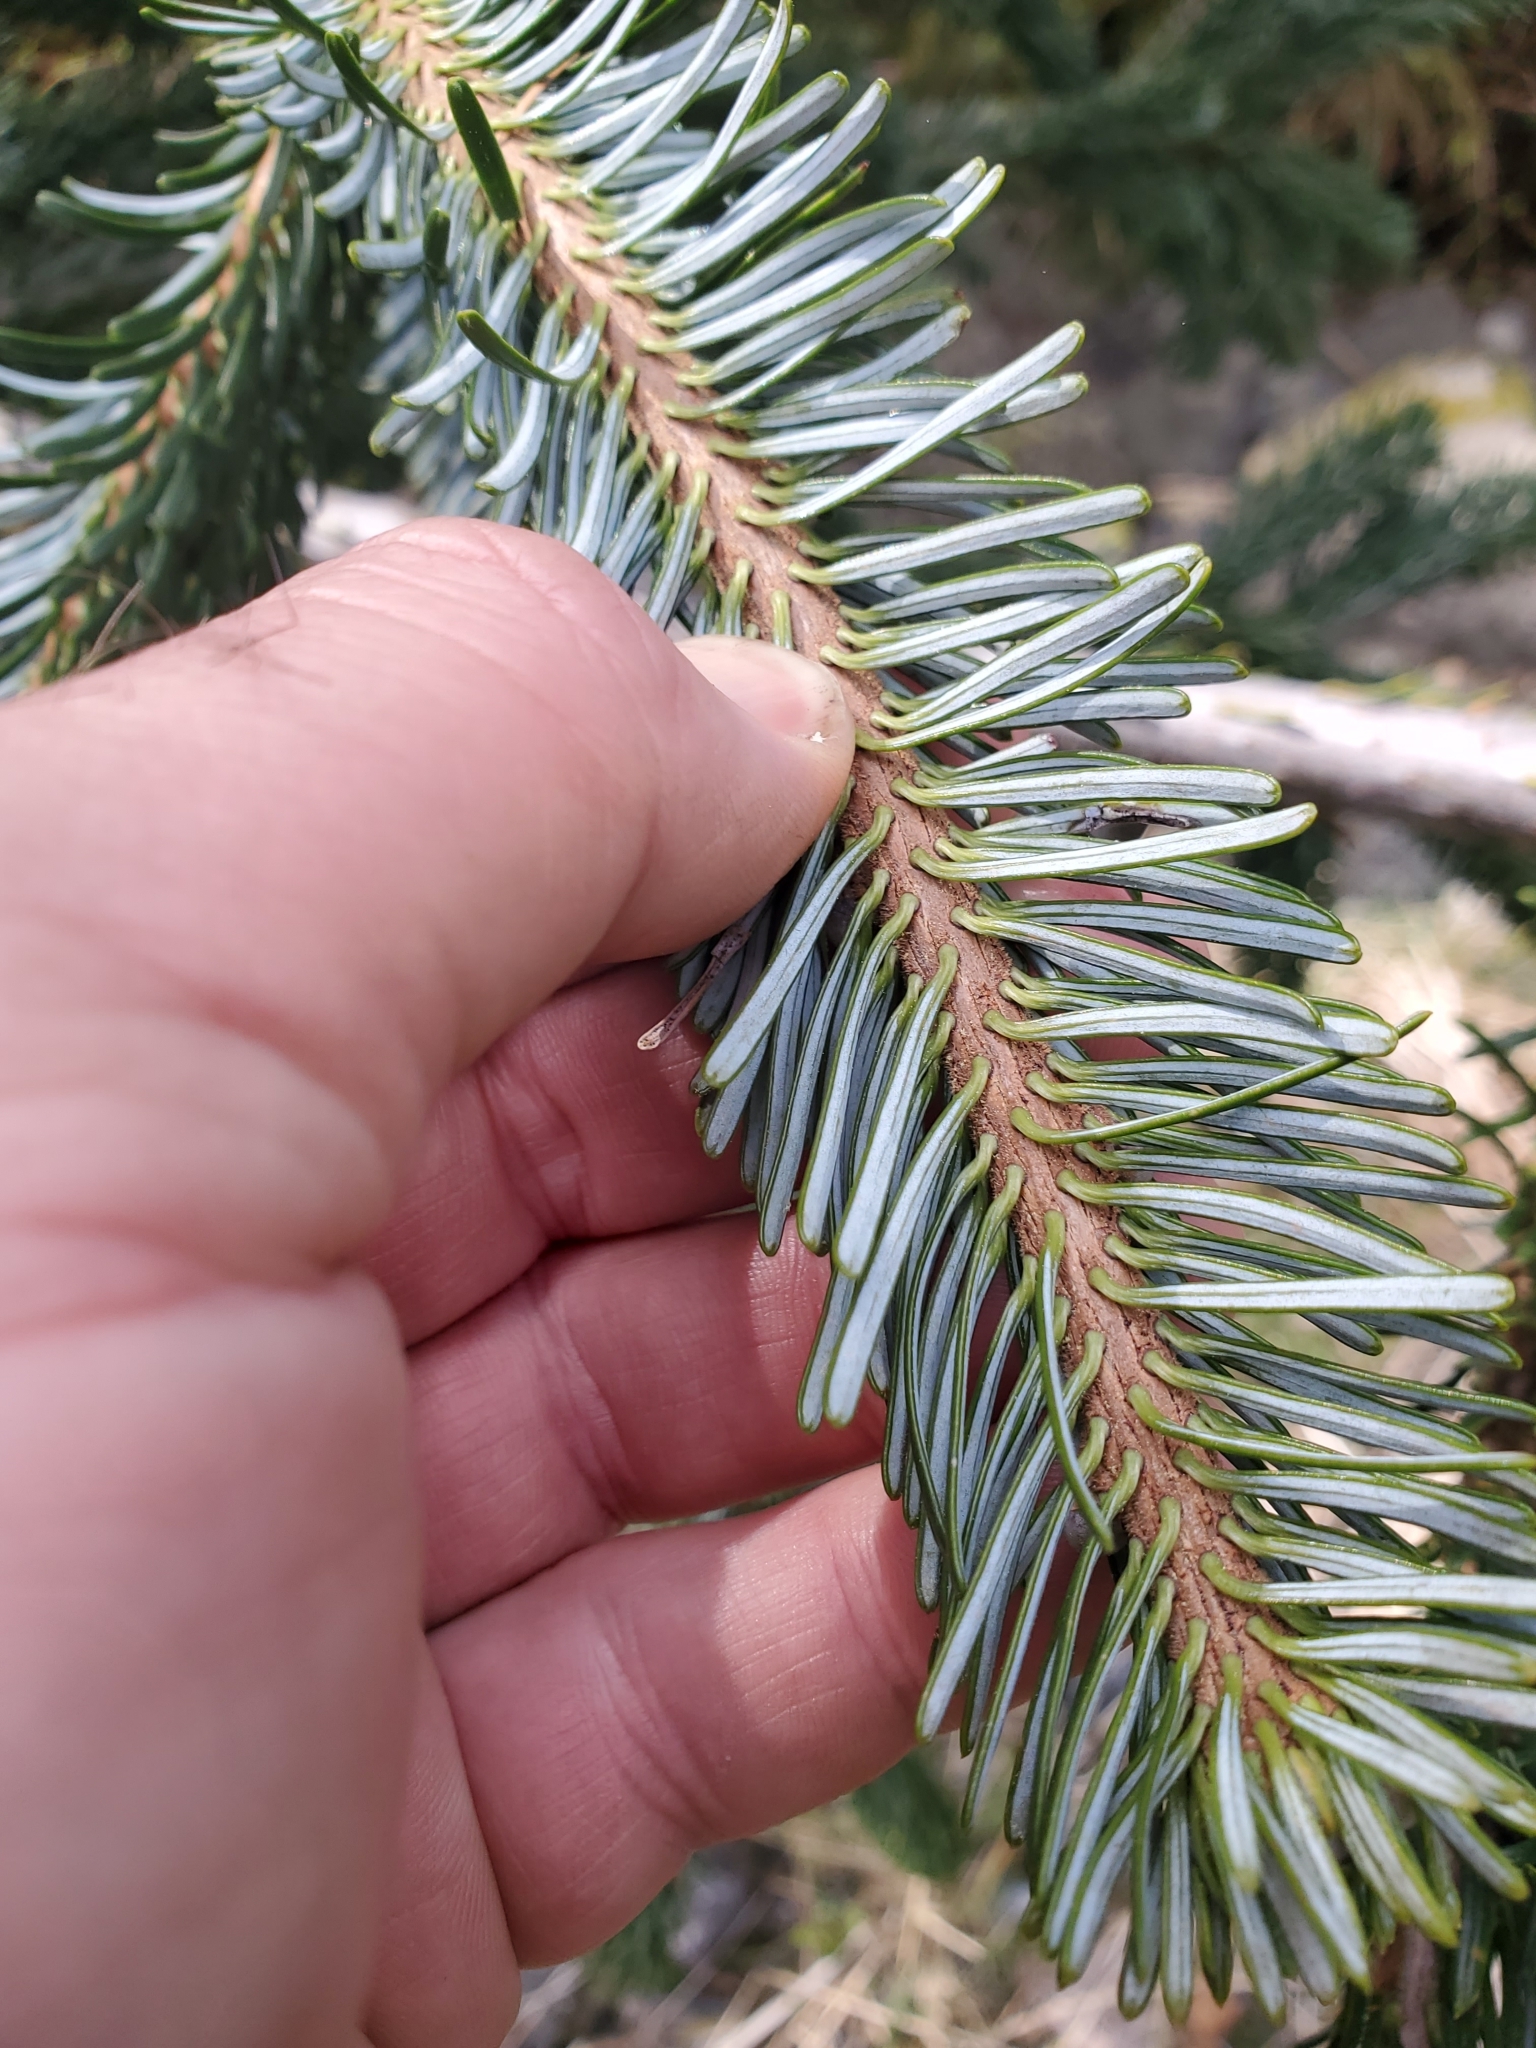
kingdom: Plantae
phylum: Tracheophyta
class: Pinopsida
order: Pinales
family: Pinaceae
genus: Abies
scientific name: Abies amabilis
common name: Pacific silver fir
